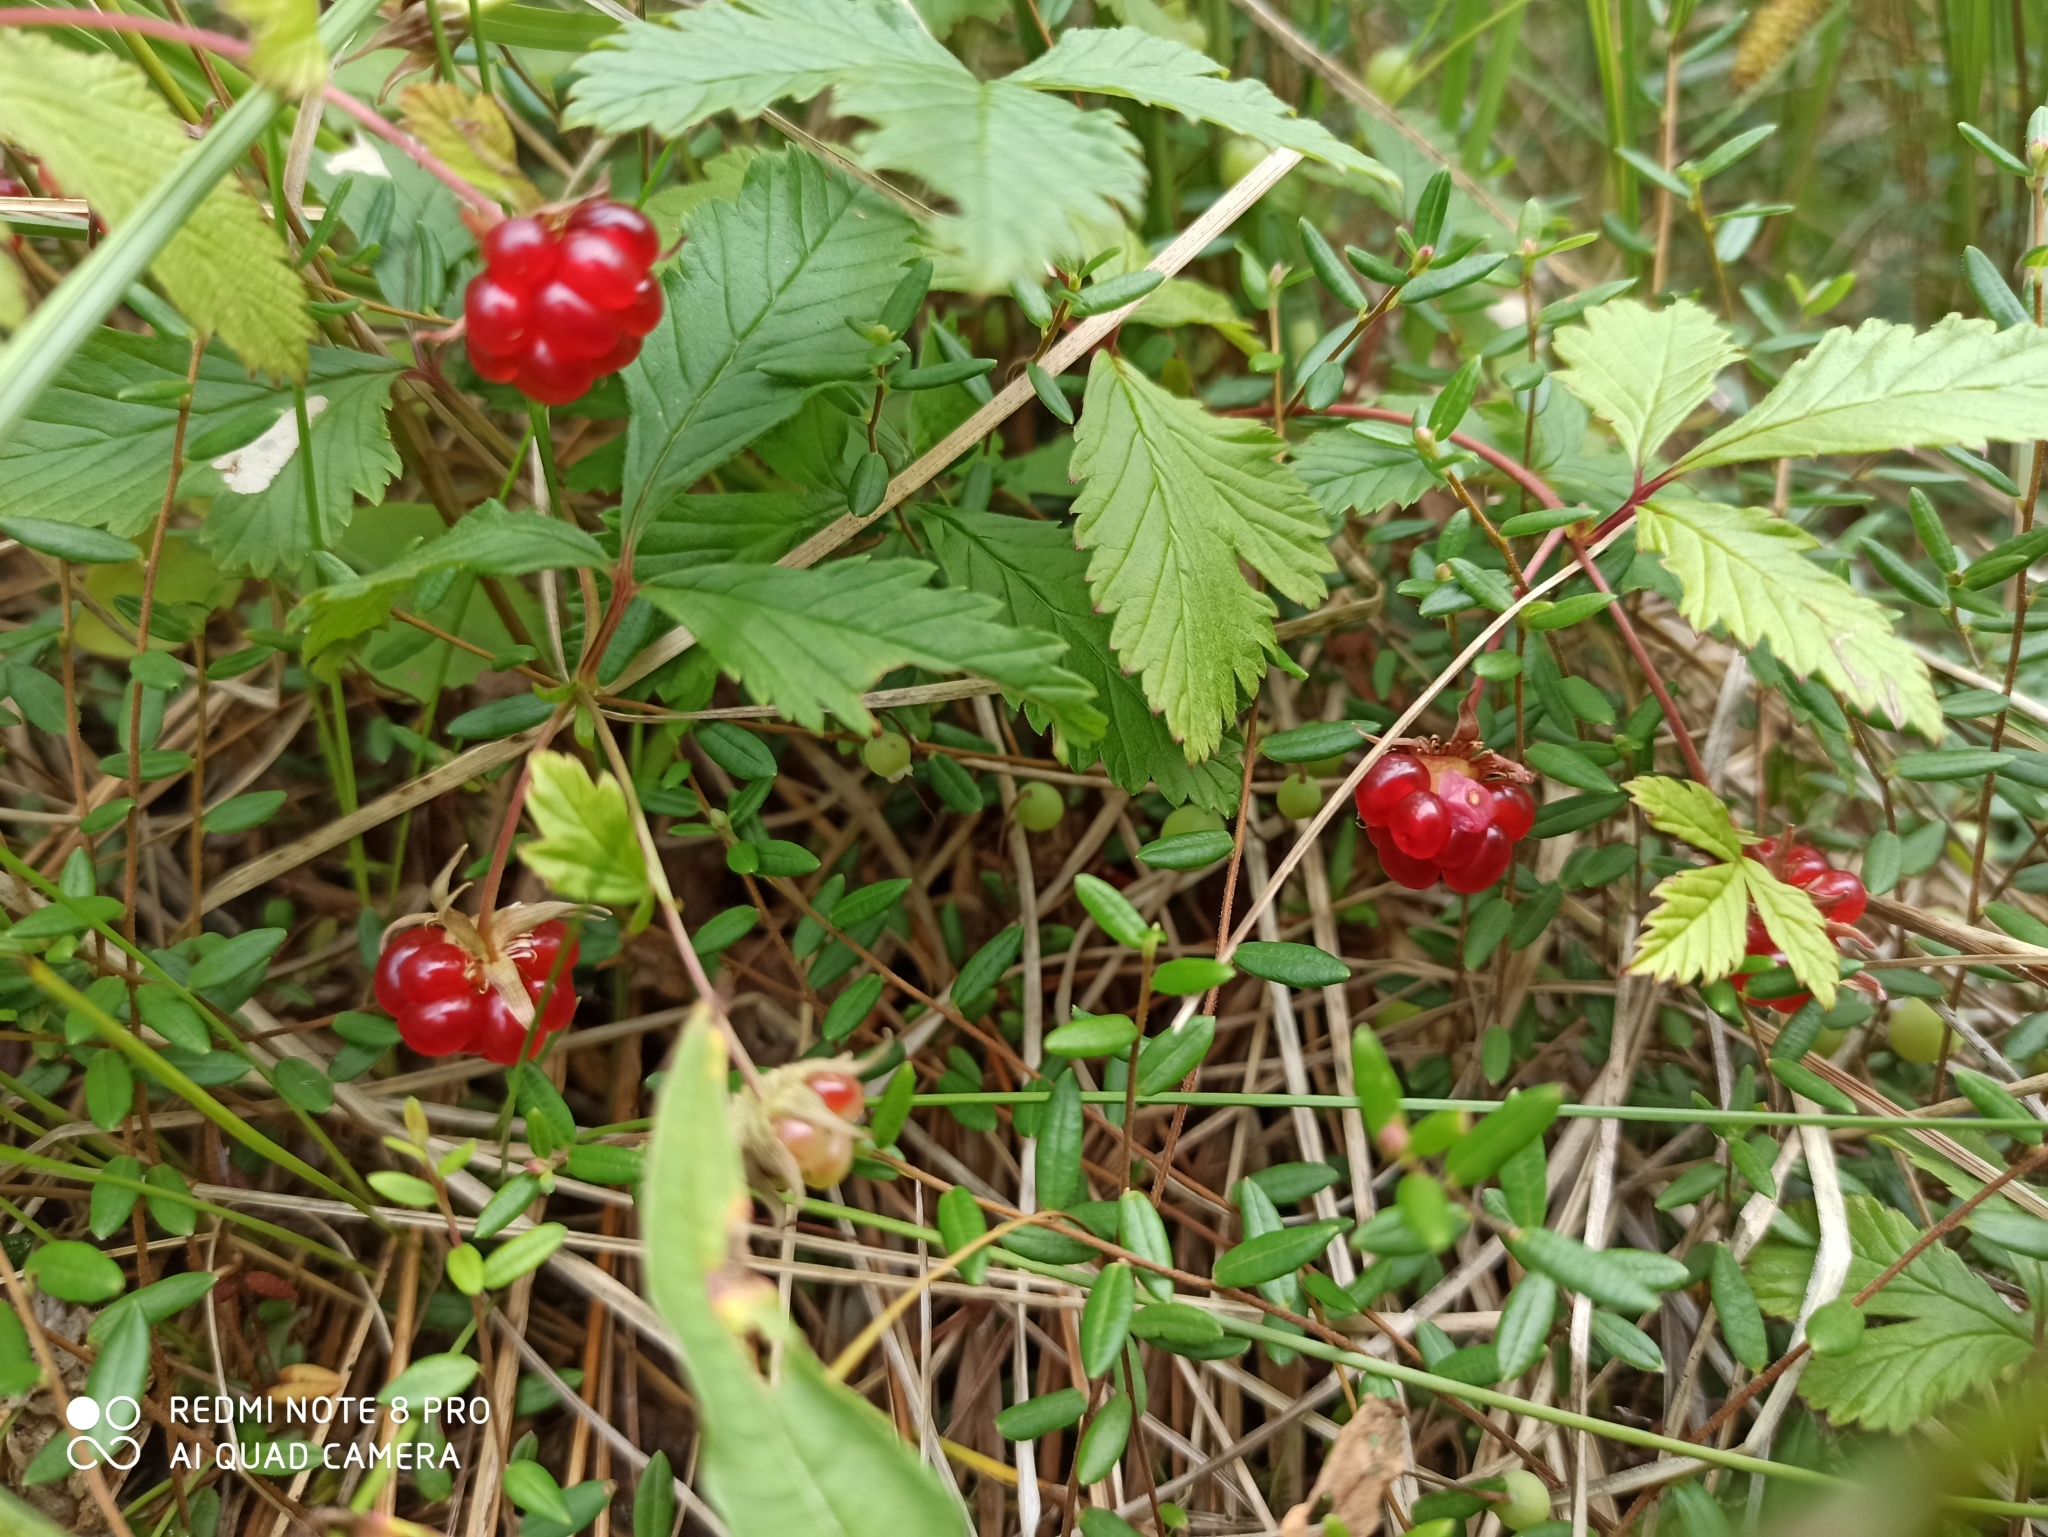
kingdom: Plantae
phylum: Tracheophyta
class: Magnoliopsida
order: Rosales
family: Rosaceae
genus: Rubus
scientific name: Rubus arcticus
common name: Arctic bramble
